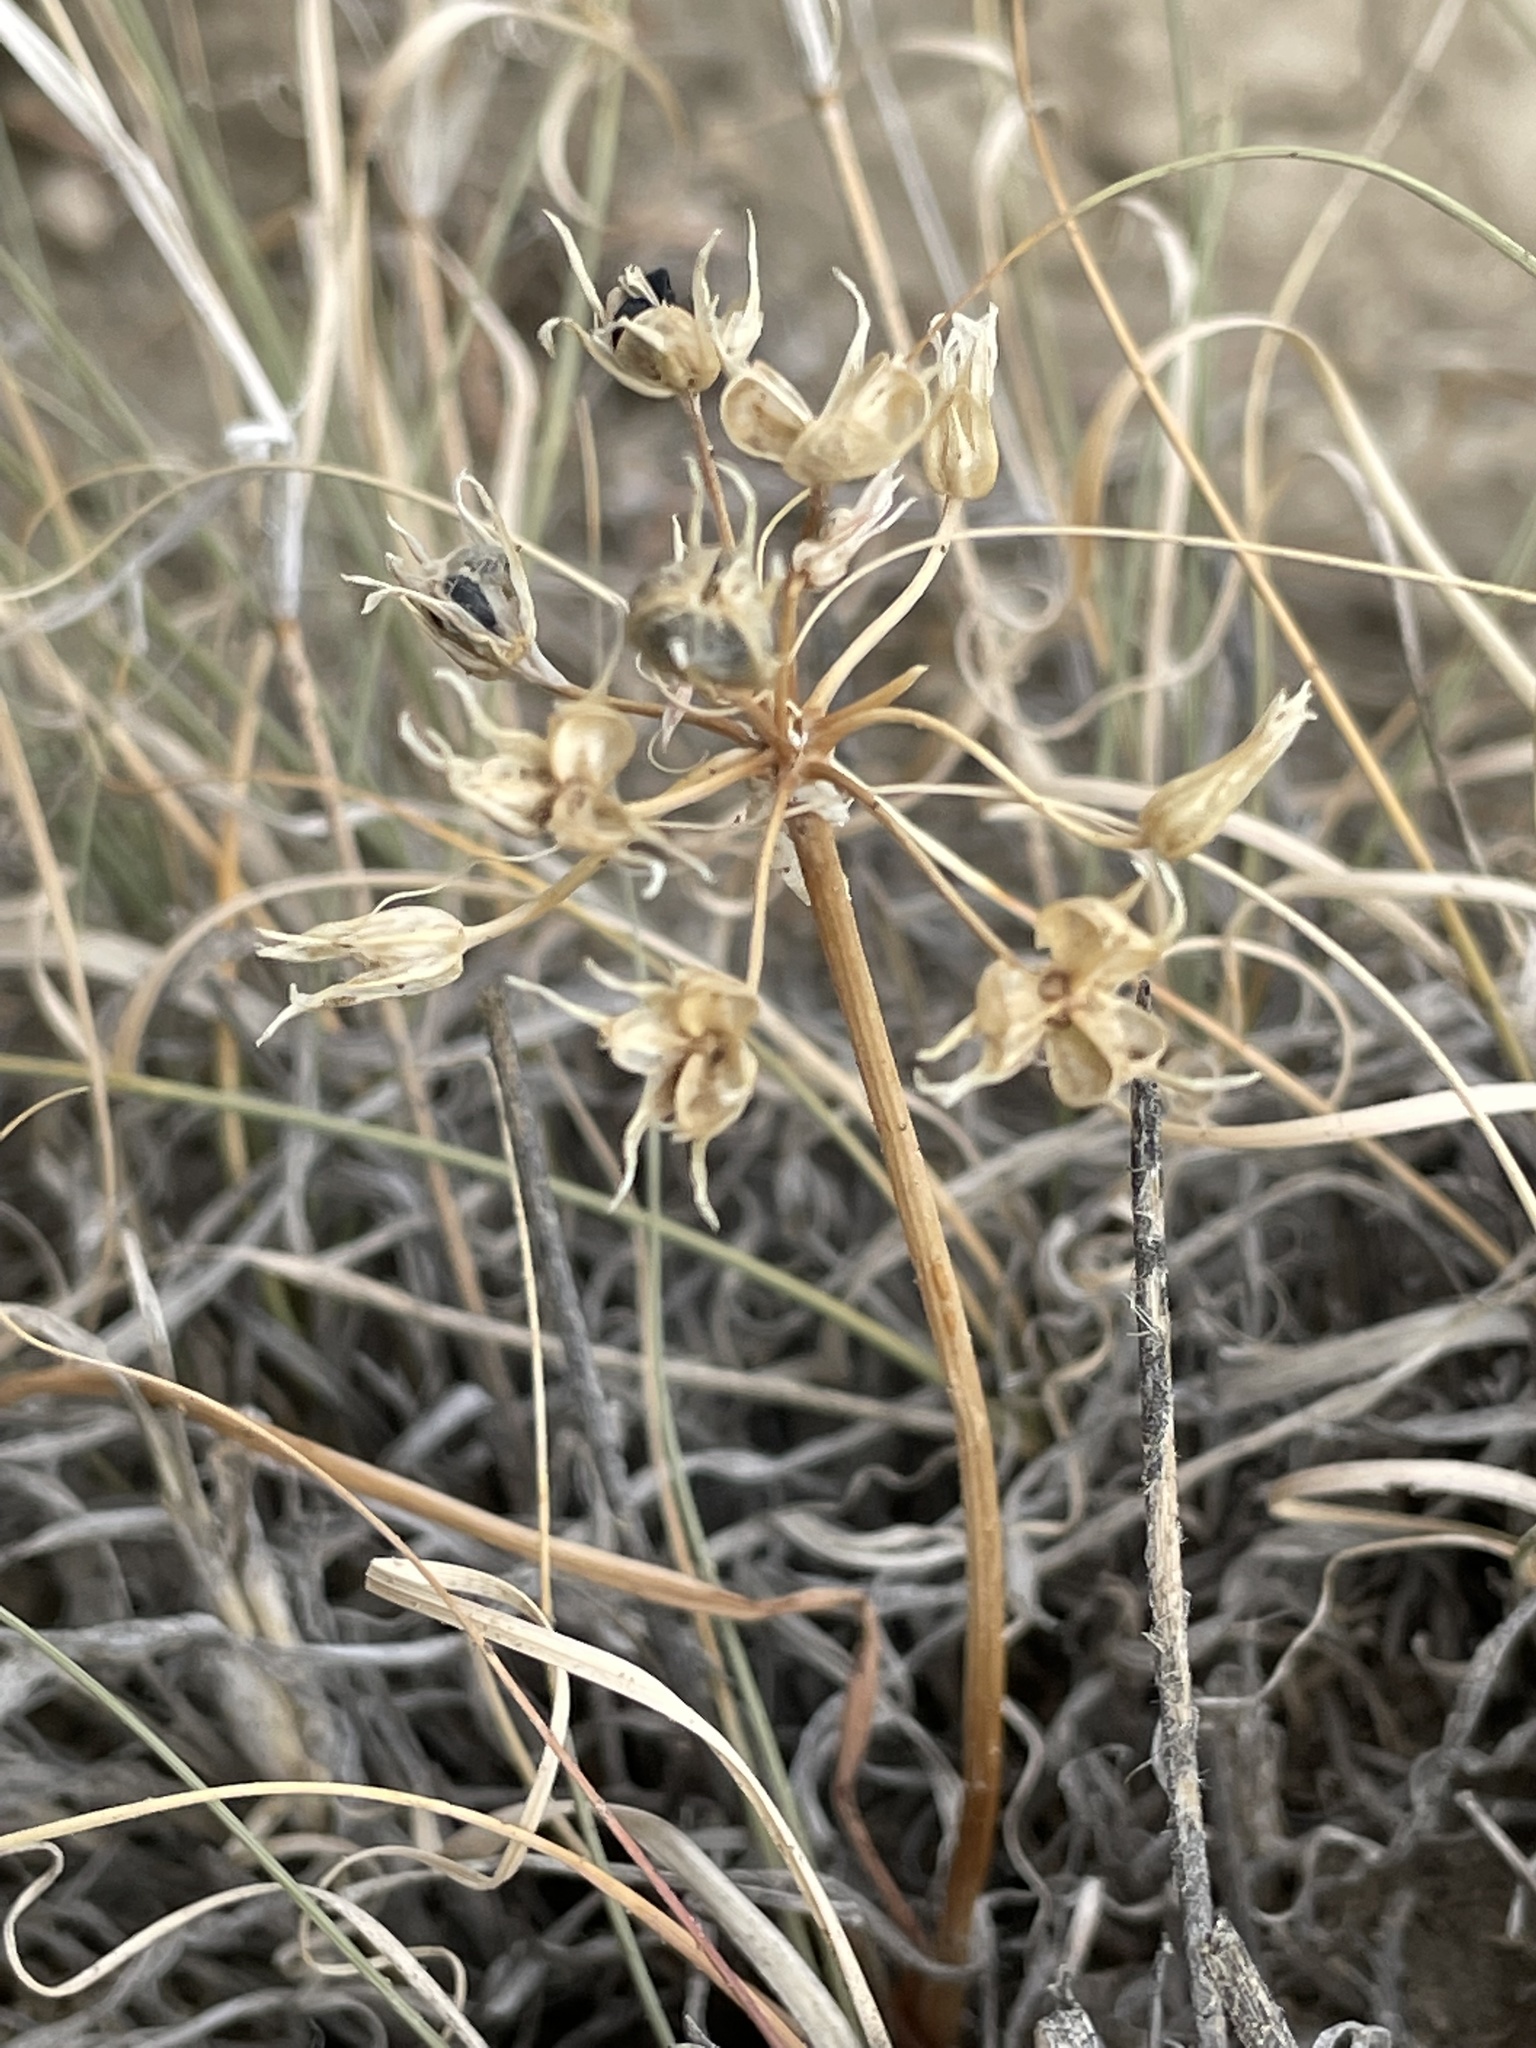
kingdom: Plantae
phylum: Tracheophyta
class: Liliopsida
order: Asparagales
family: Amaryllidaceae
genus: Allium
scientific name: Allium macropetalum
